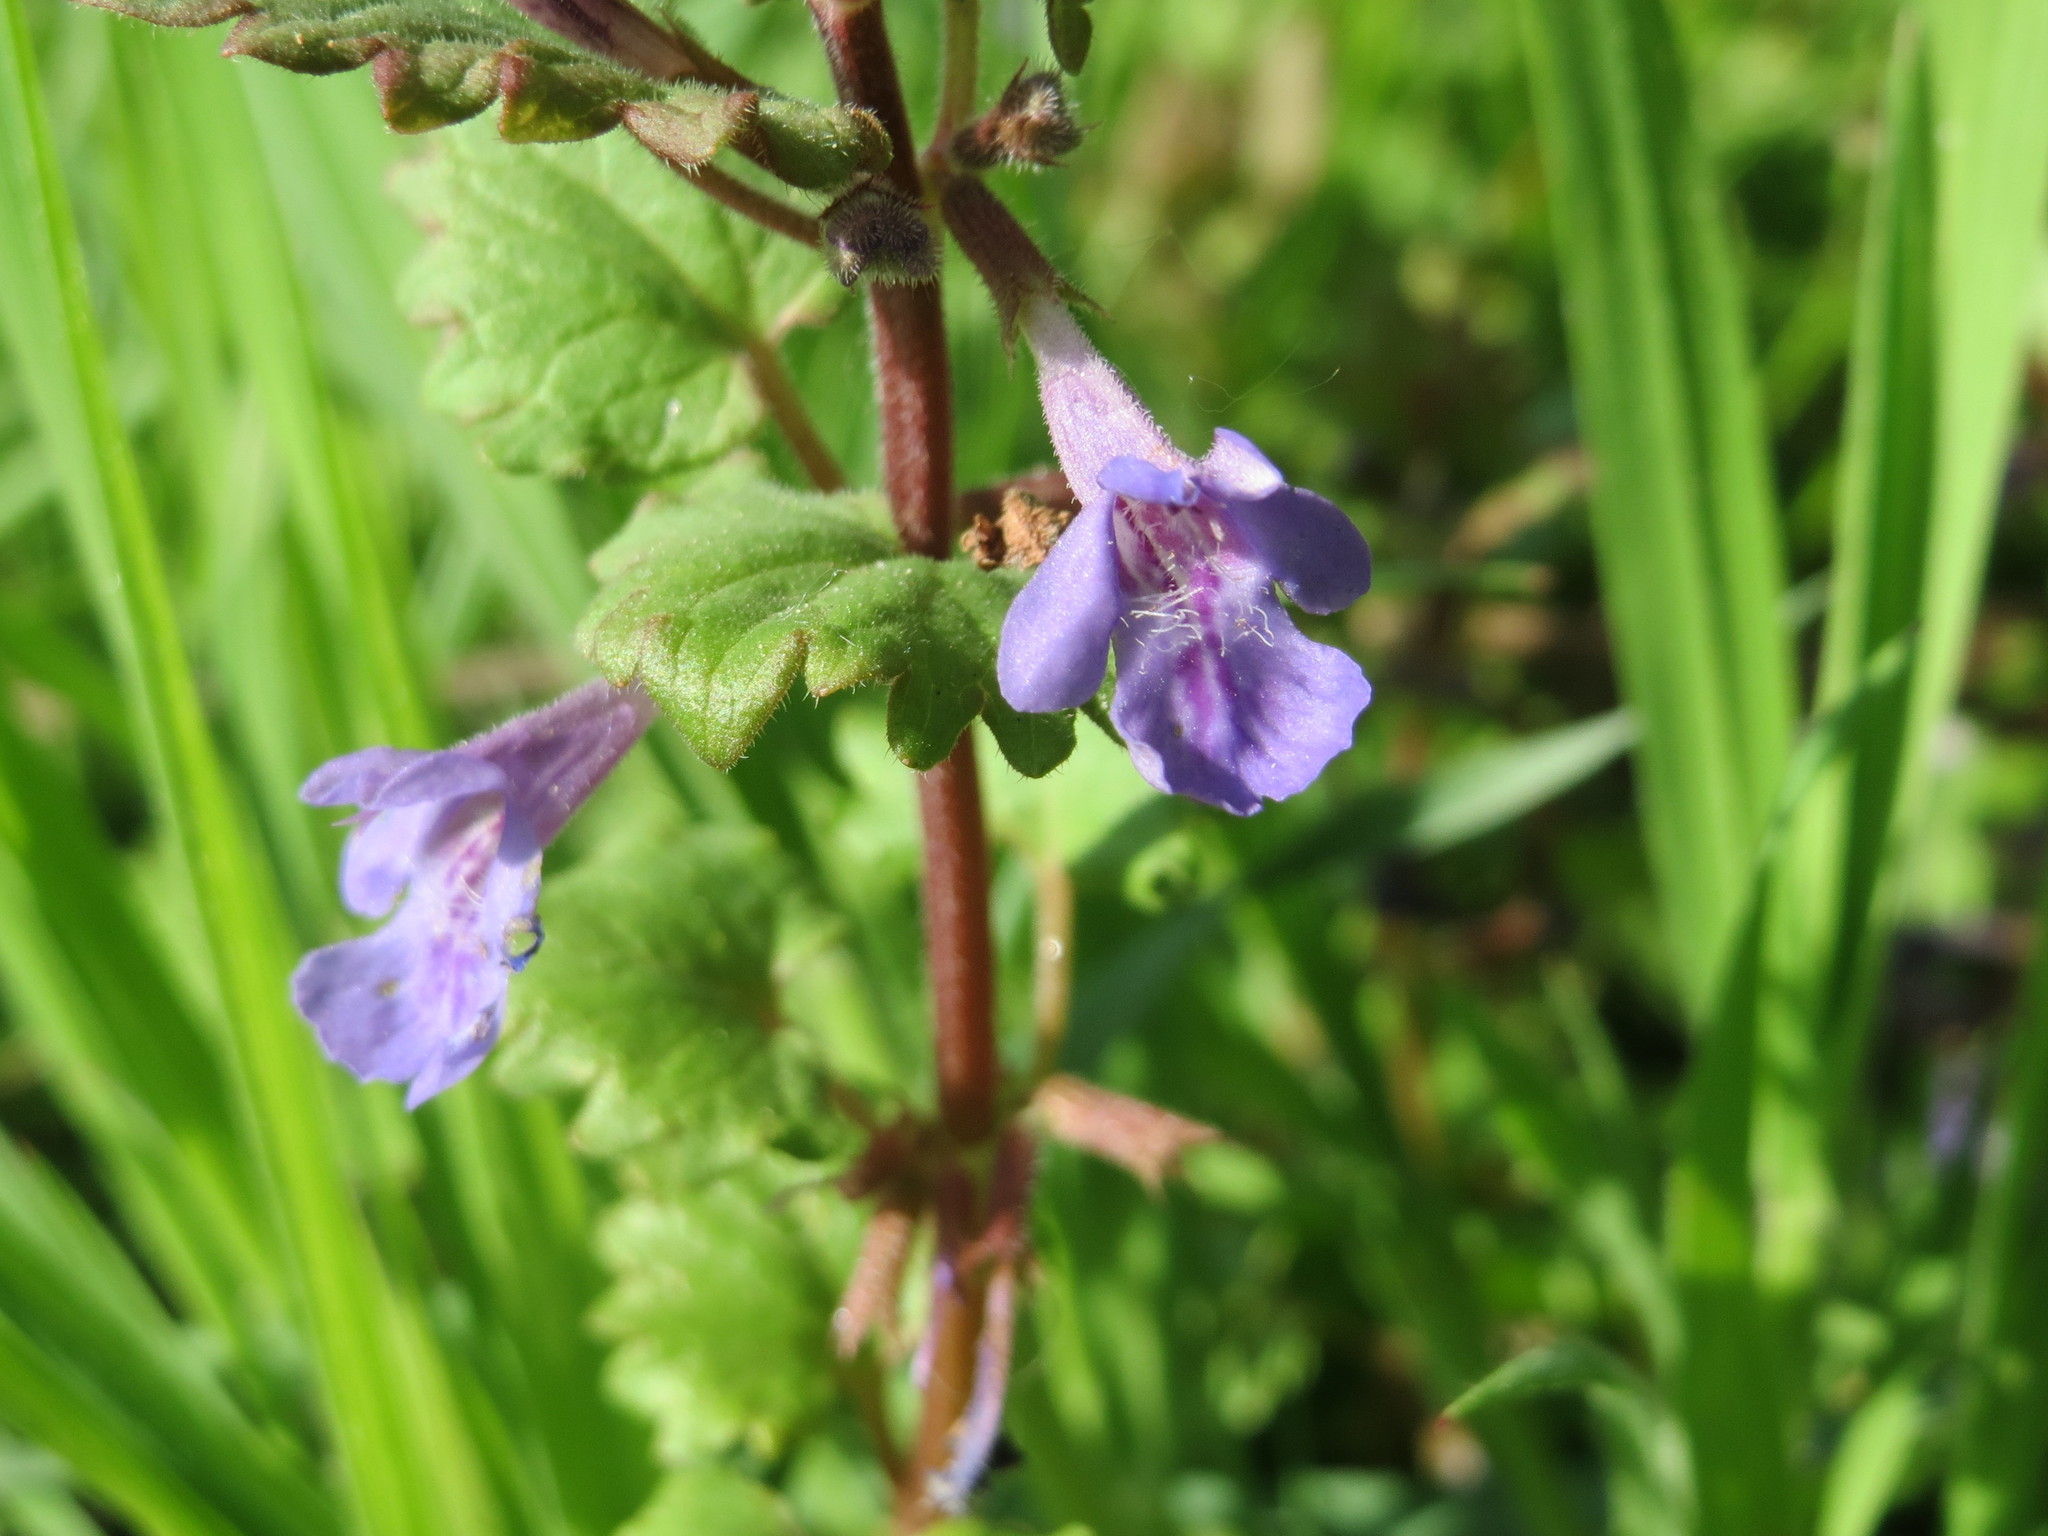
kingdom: Plantae
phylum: Tracheophyta
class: Magnoliopsida
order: Lamiales
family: Lamiaceae
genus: Glechoma
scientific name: Glechoma hederacea
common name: Ground ivy
